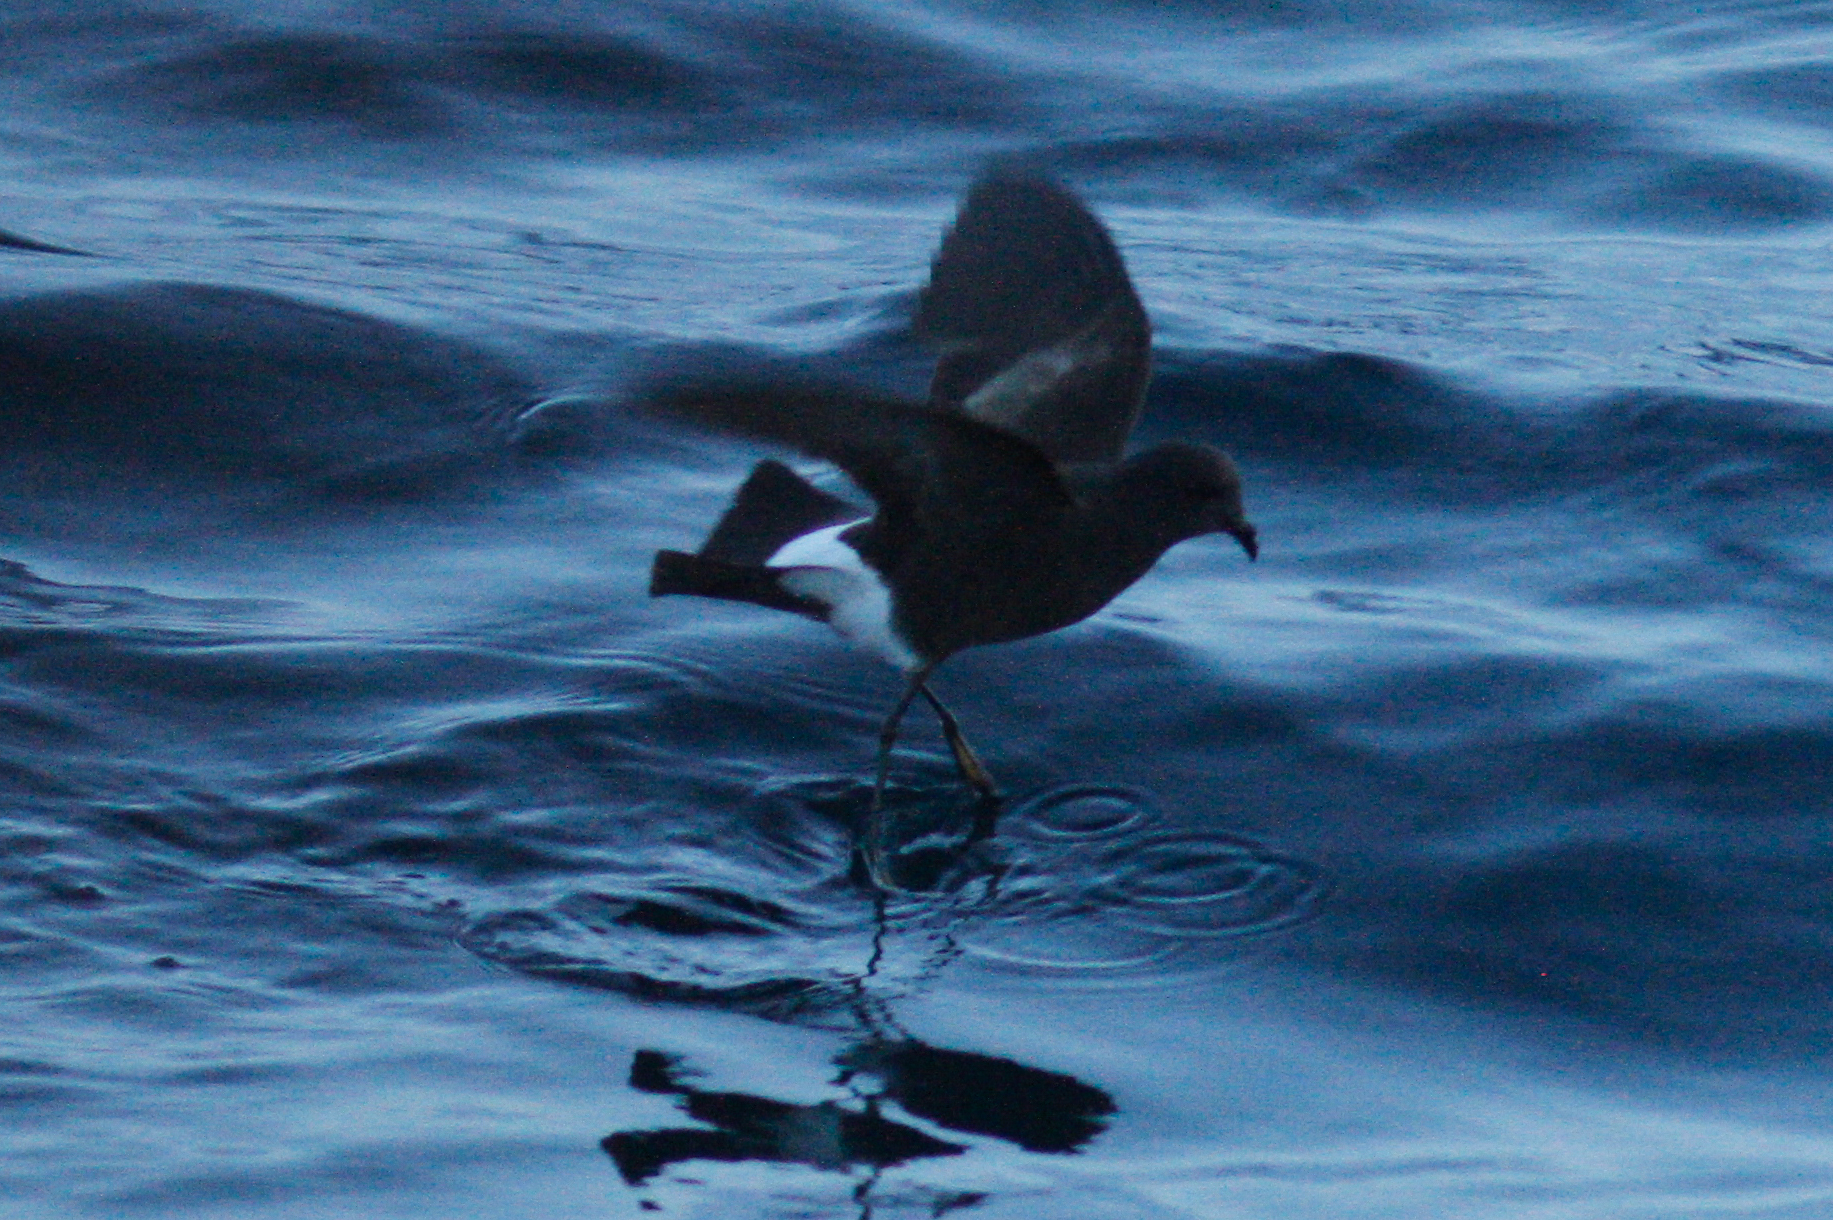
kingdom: Animalia
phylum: Chordata
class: Aves
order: Procellariiformes
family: Hydrobatidae
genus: Oceanites
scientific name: Oceanites oceanicus
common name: Wilson's storm petrel
